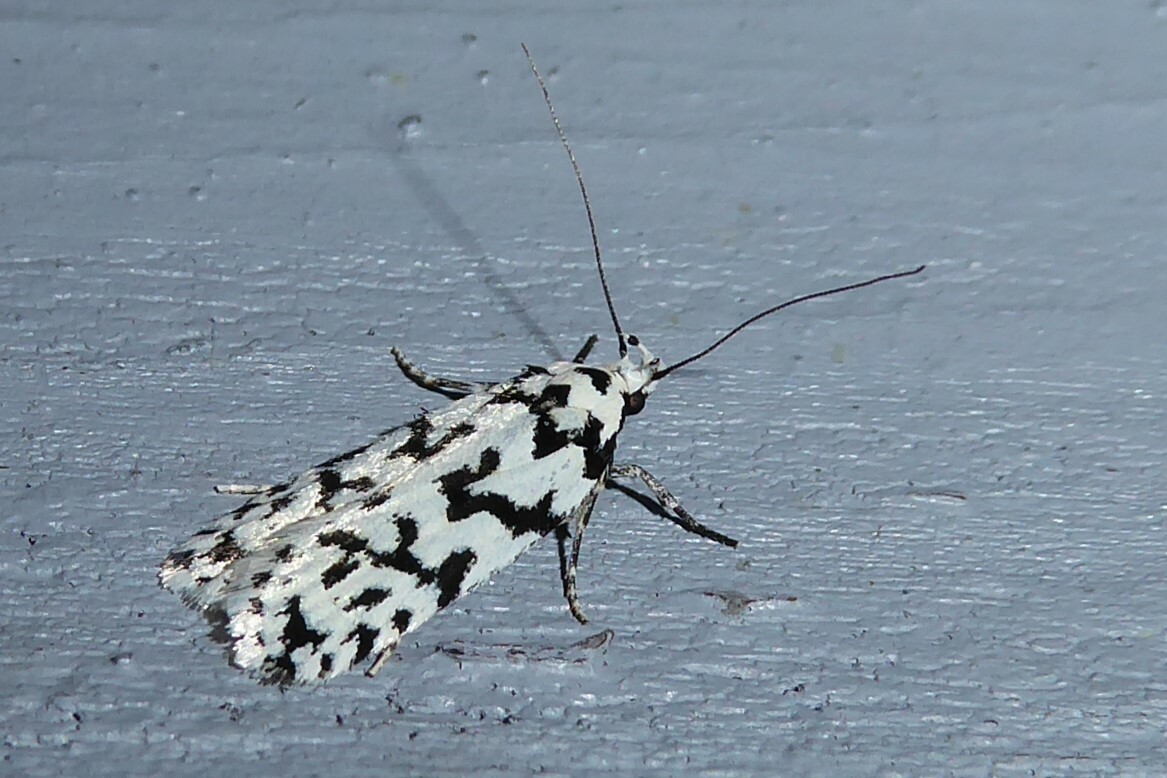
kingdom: Animalia
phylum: Arthropoda
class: Insecta
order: Lepidoptera
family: Oecophoridae
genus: Izatha
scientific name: Izatha katadiktya
